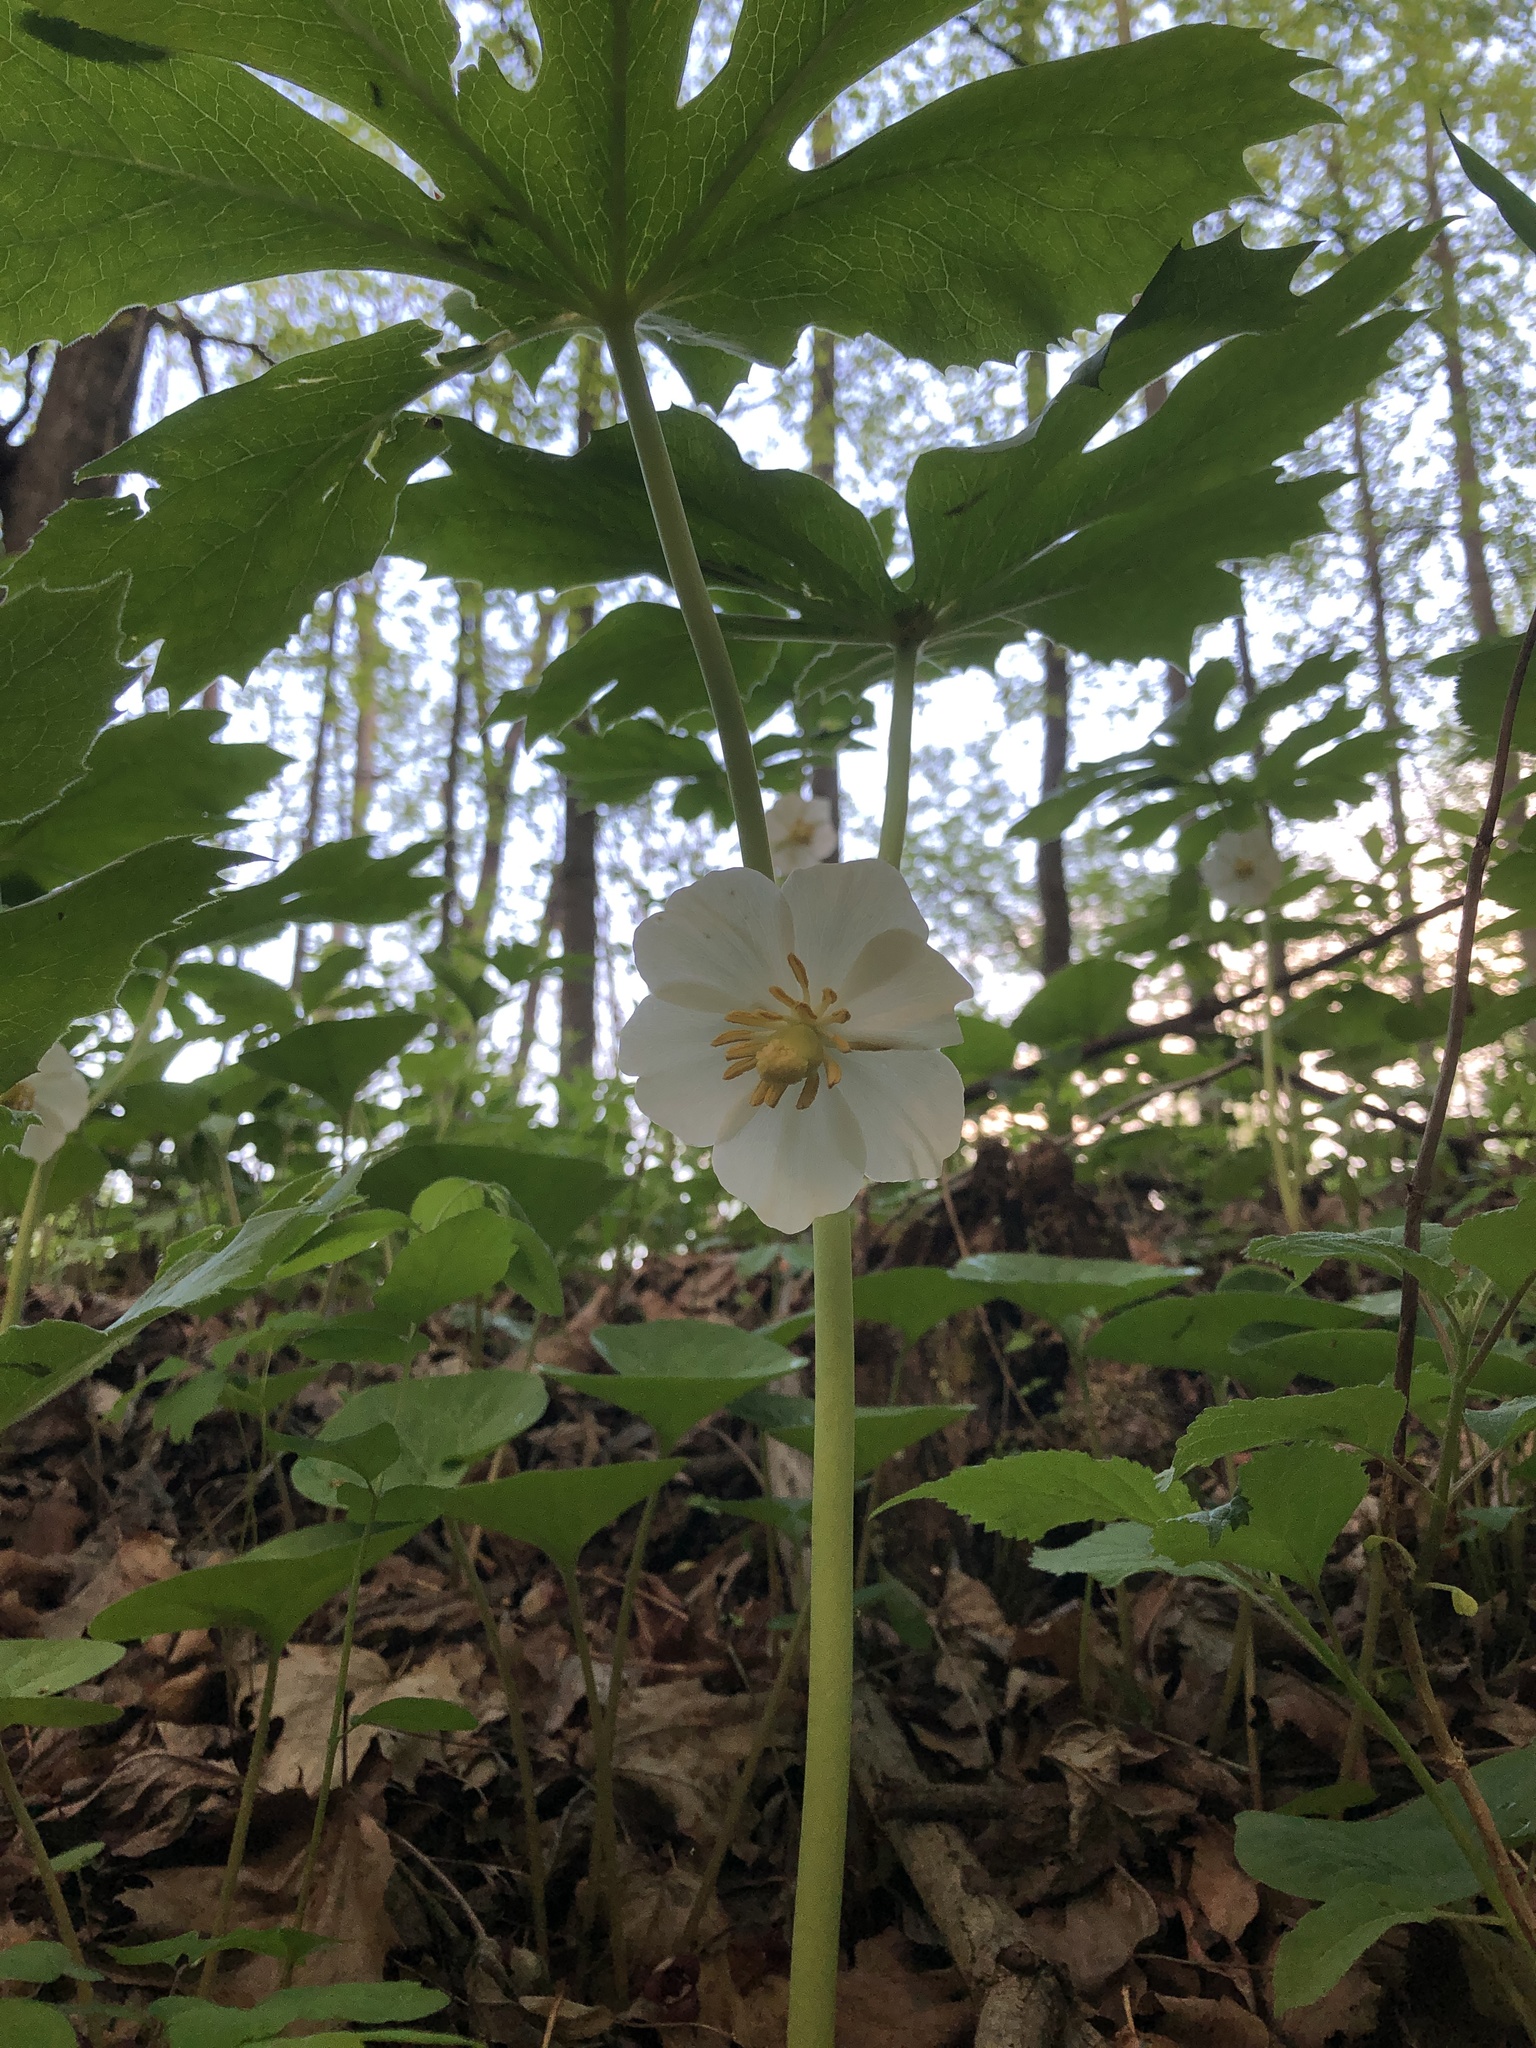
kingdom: Plantae
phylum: Tracheophyta
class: Magnoliopsida
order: Ranunculales
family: Berberidaceae
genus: Podophyllum
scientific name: Podophyllum peltatum
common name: Wild mandrake
